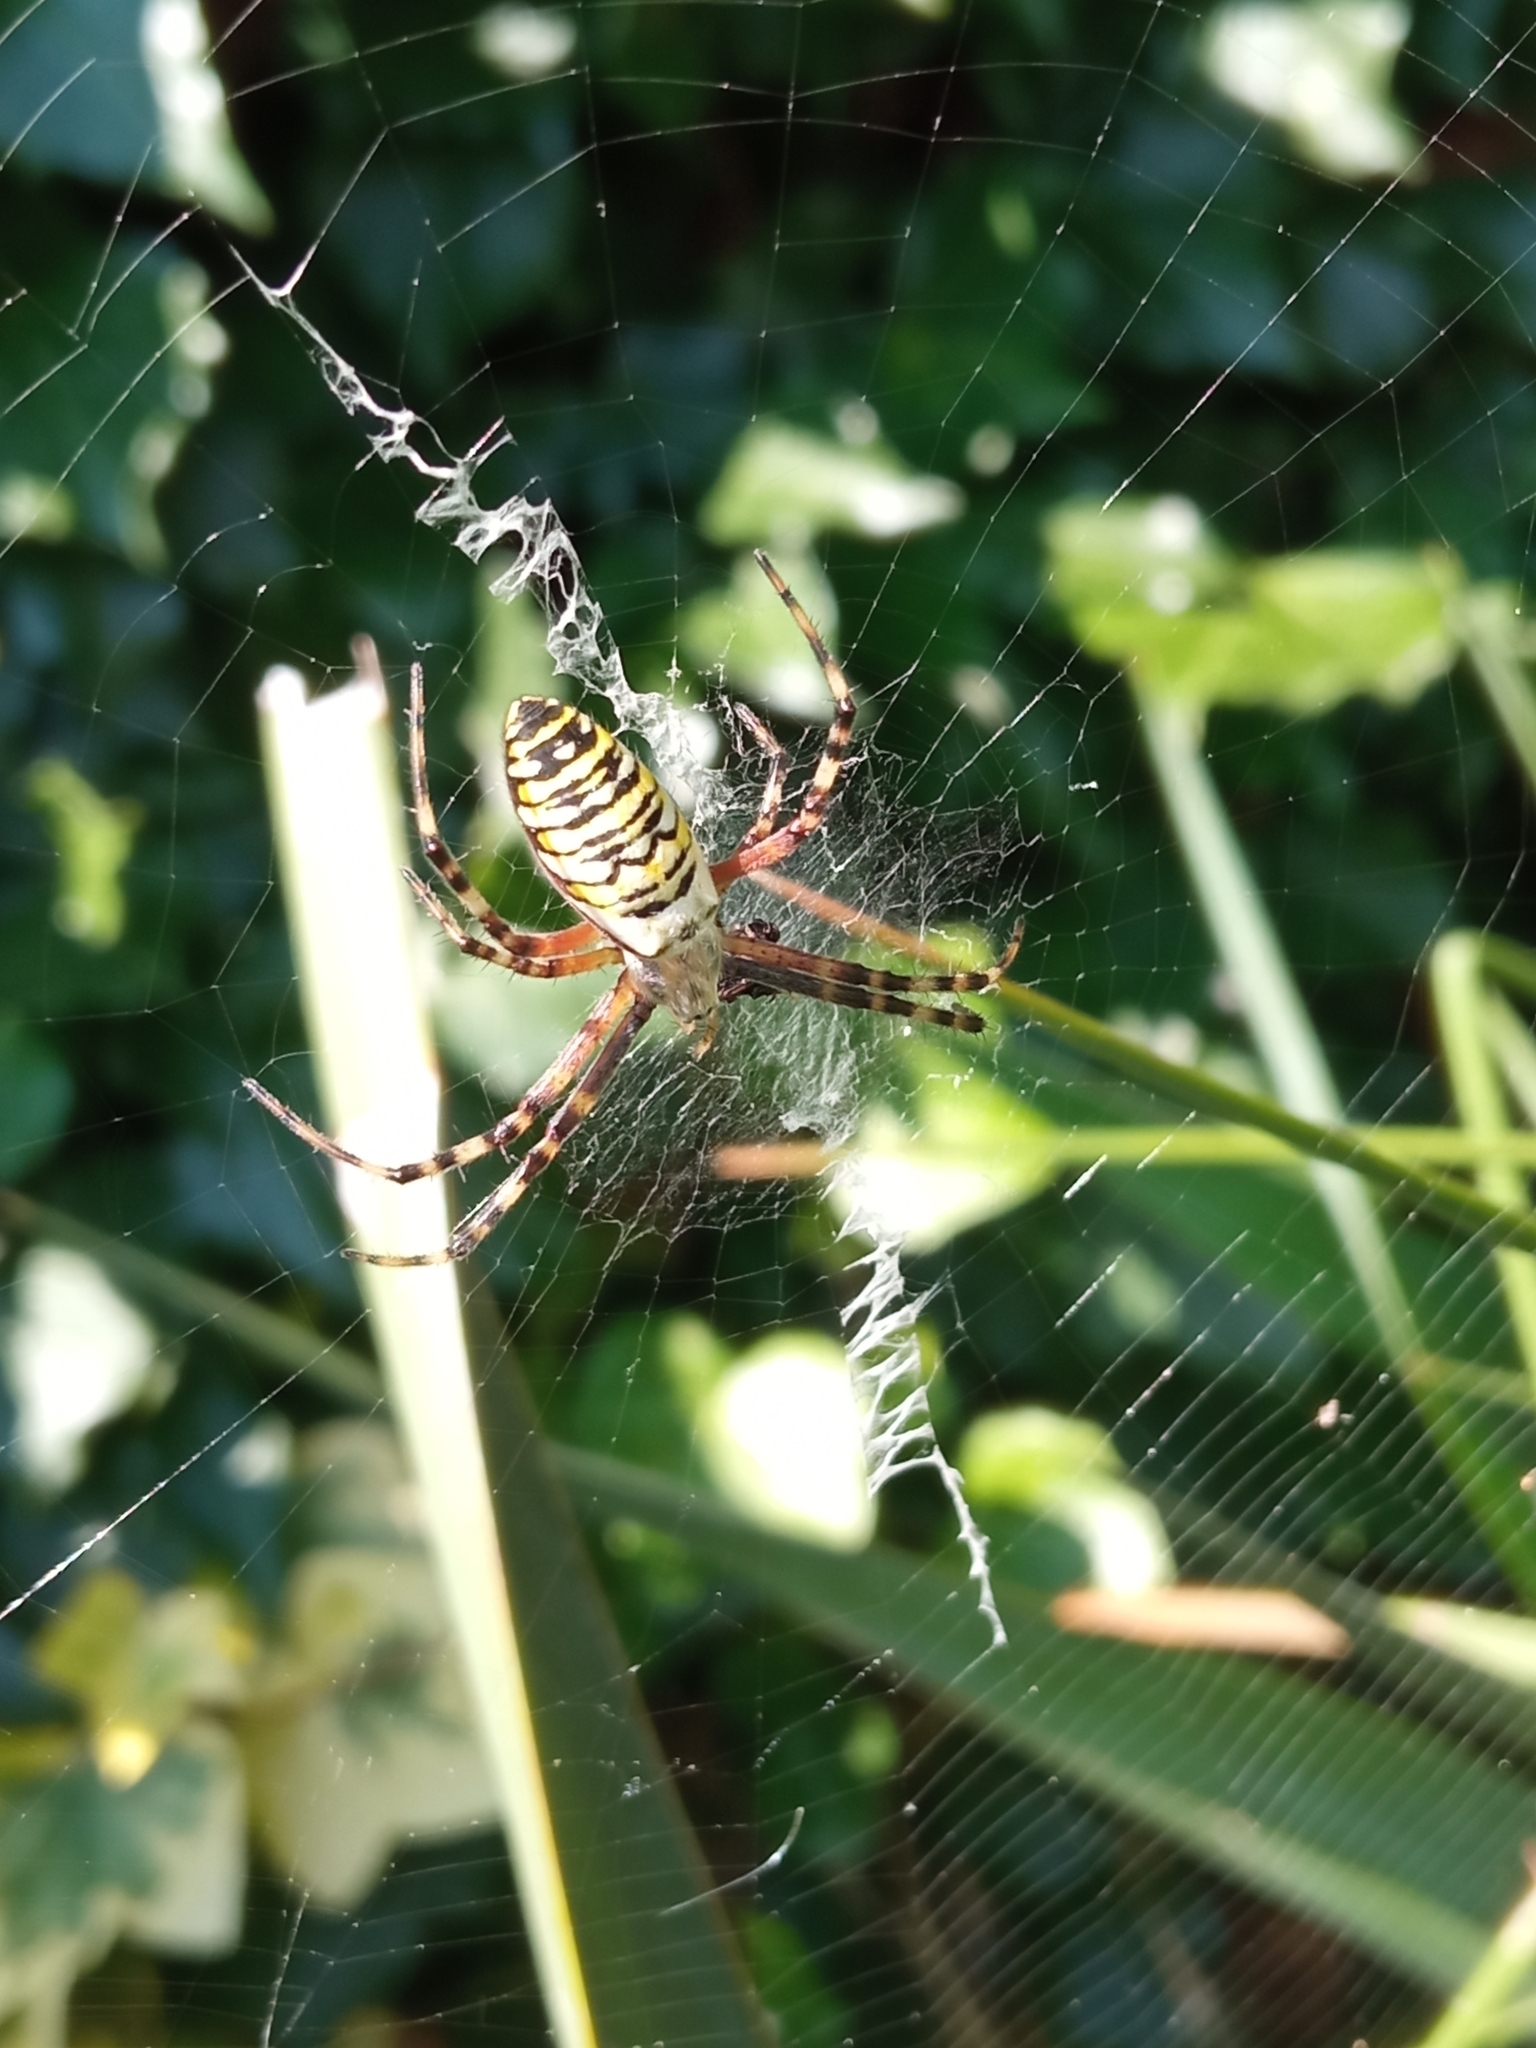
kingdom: Animalia
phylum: Arthropoda
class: Arachnida
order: Araneae
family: Araneidae
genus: Argiope
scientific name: Argiope bruennichi
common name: Wasp spider
